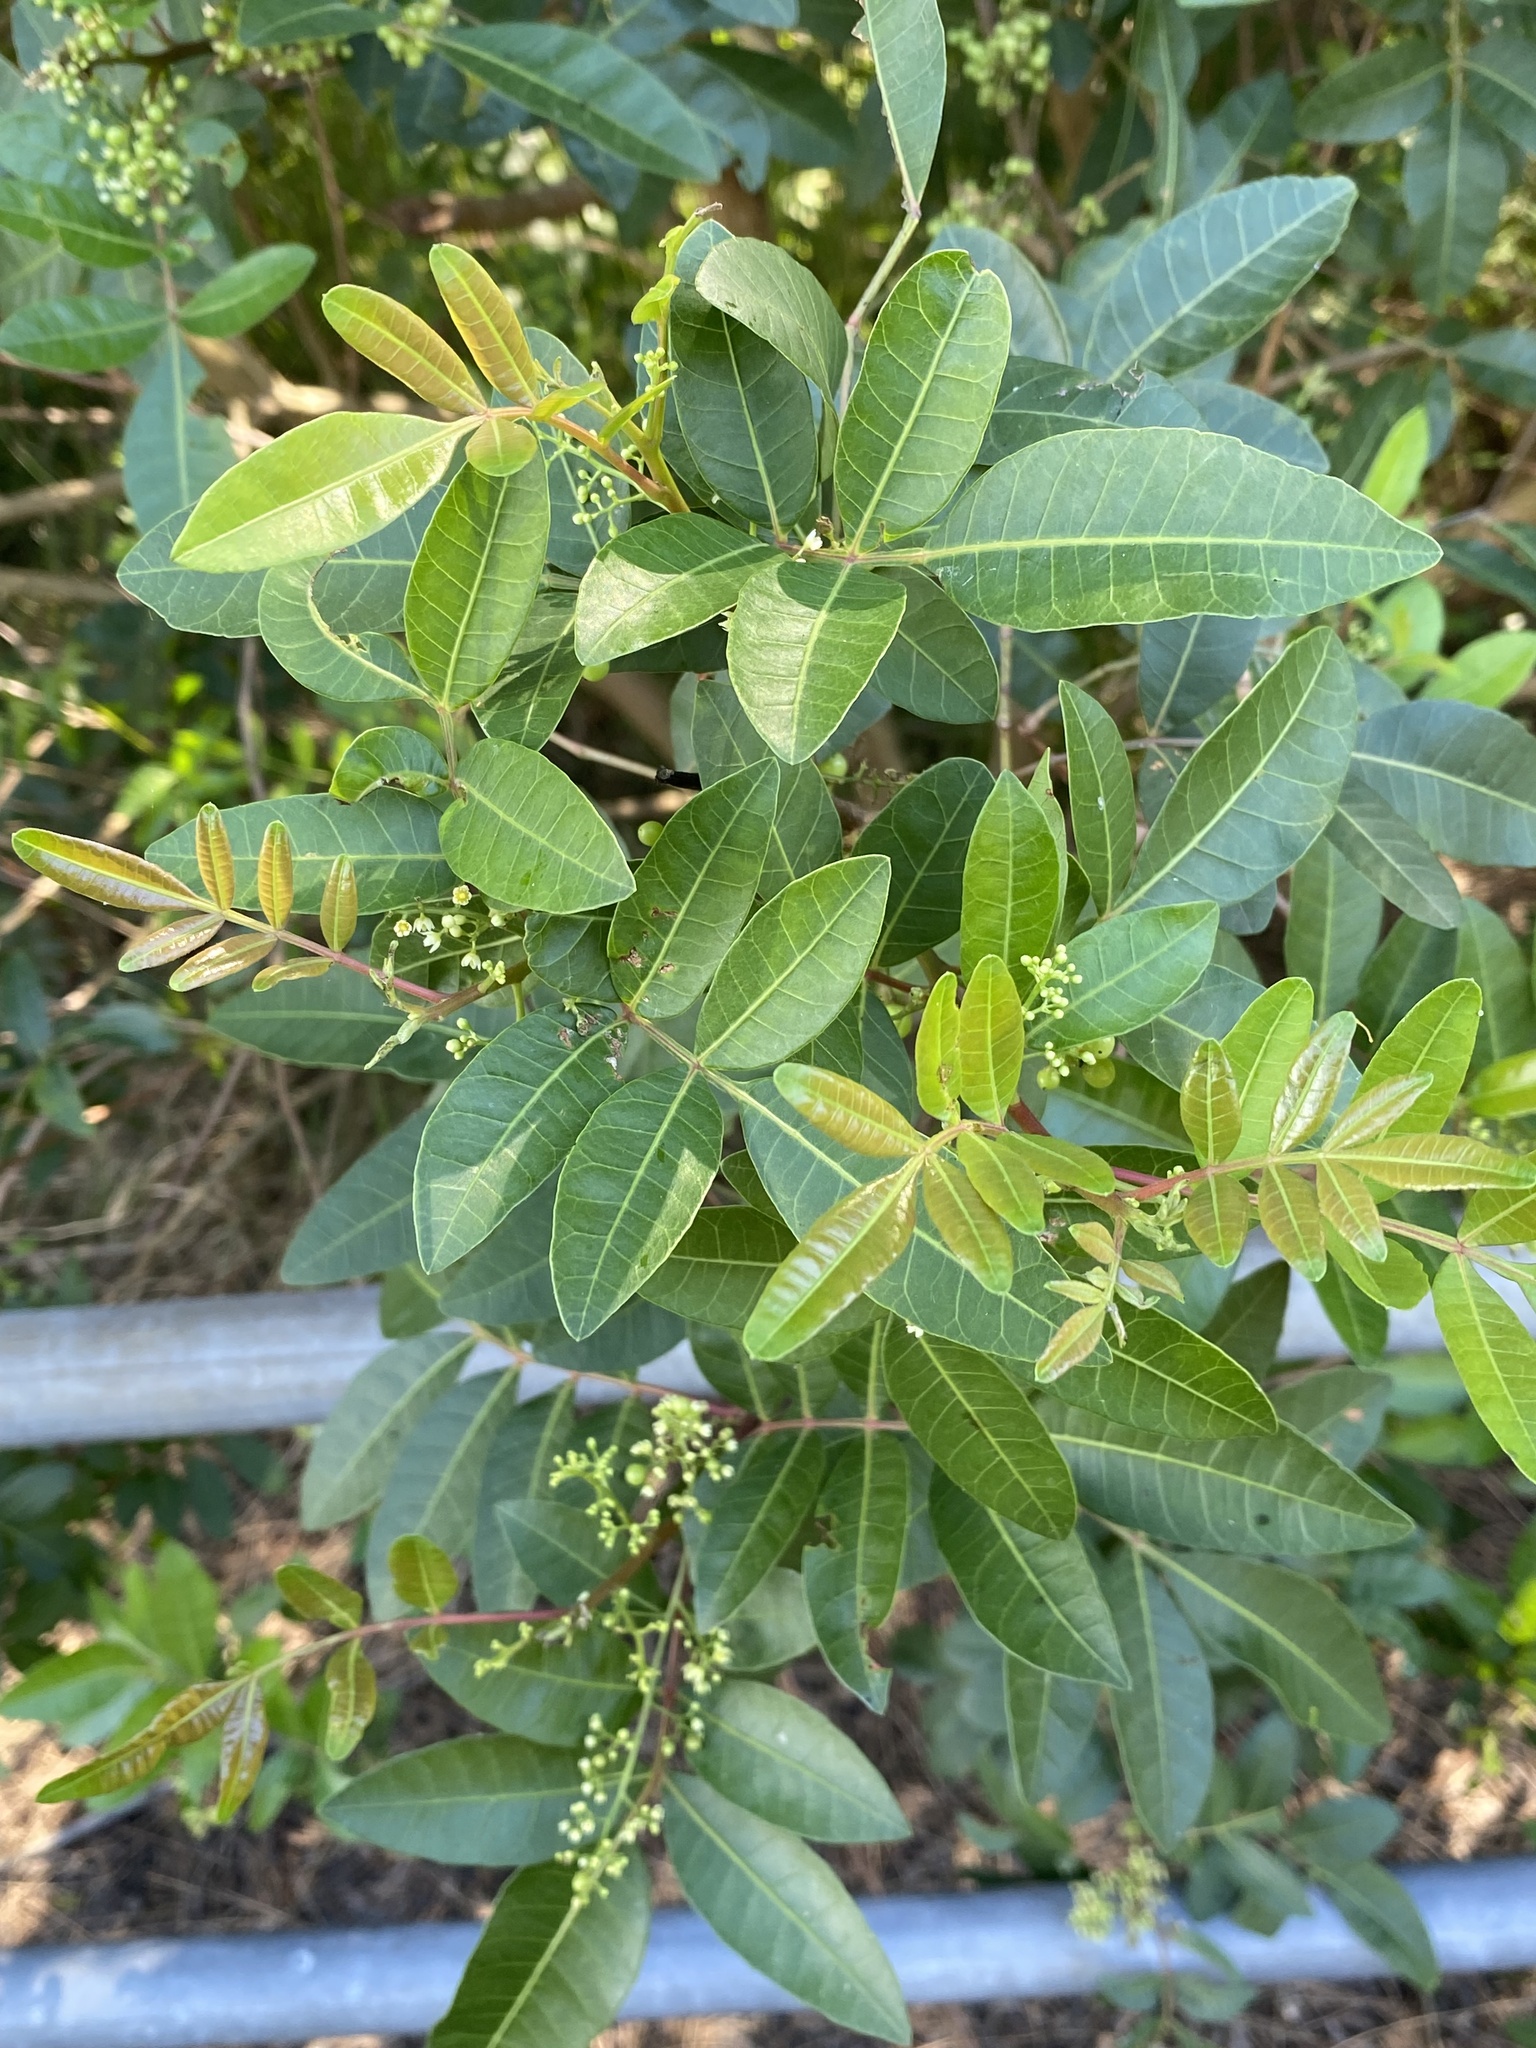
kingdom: Plantae
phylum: Tracheophyta
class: Magnoliopsida
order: Sapindales
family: Anacardiaceae
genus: Schinus
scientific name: Schinus terebinthifolia
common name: Brazilian peppertree
